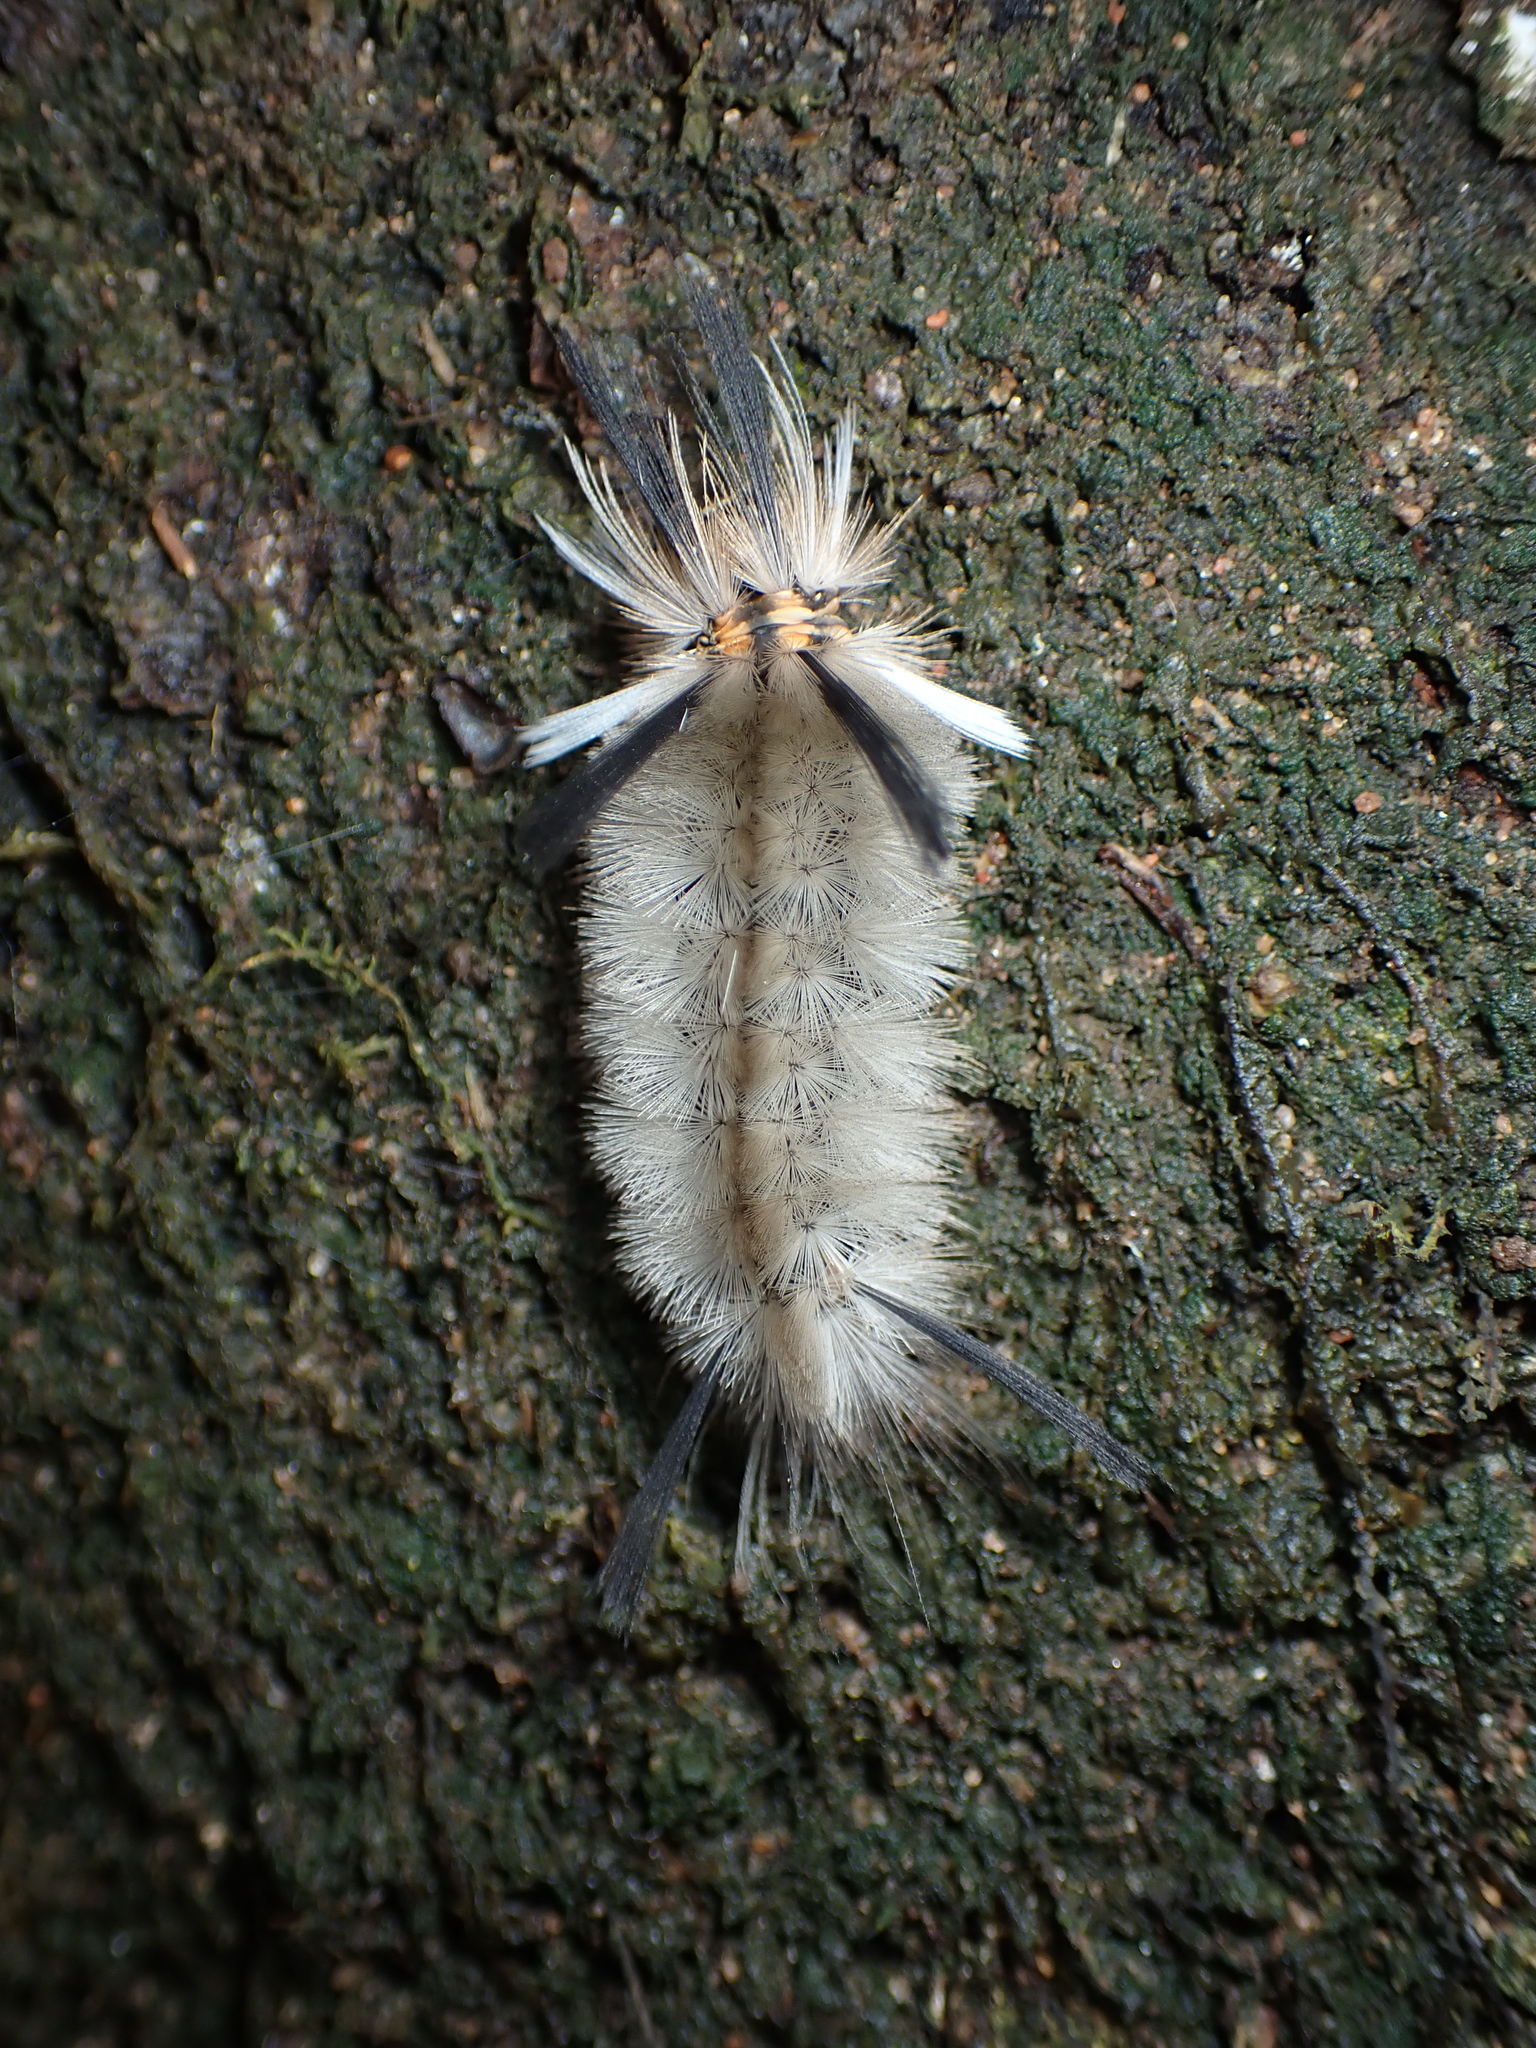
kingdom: Animalia
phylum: Arthropoda
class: Insecta
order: Lepidoptera
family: Erebidae
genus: Halysidota
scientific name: Halysidota tessellaris
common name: Banded tussock moth
